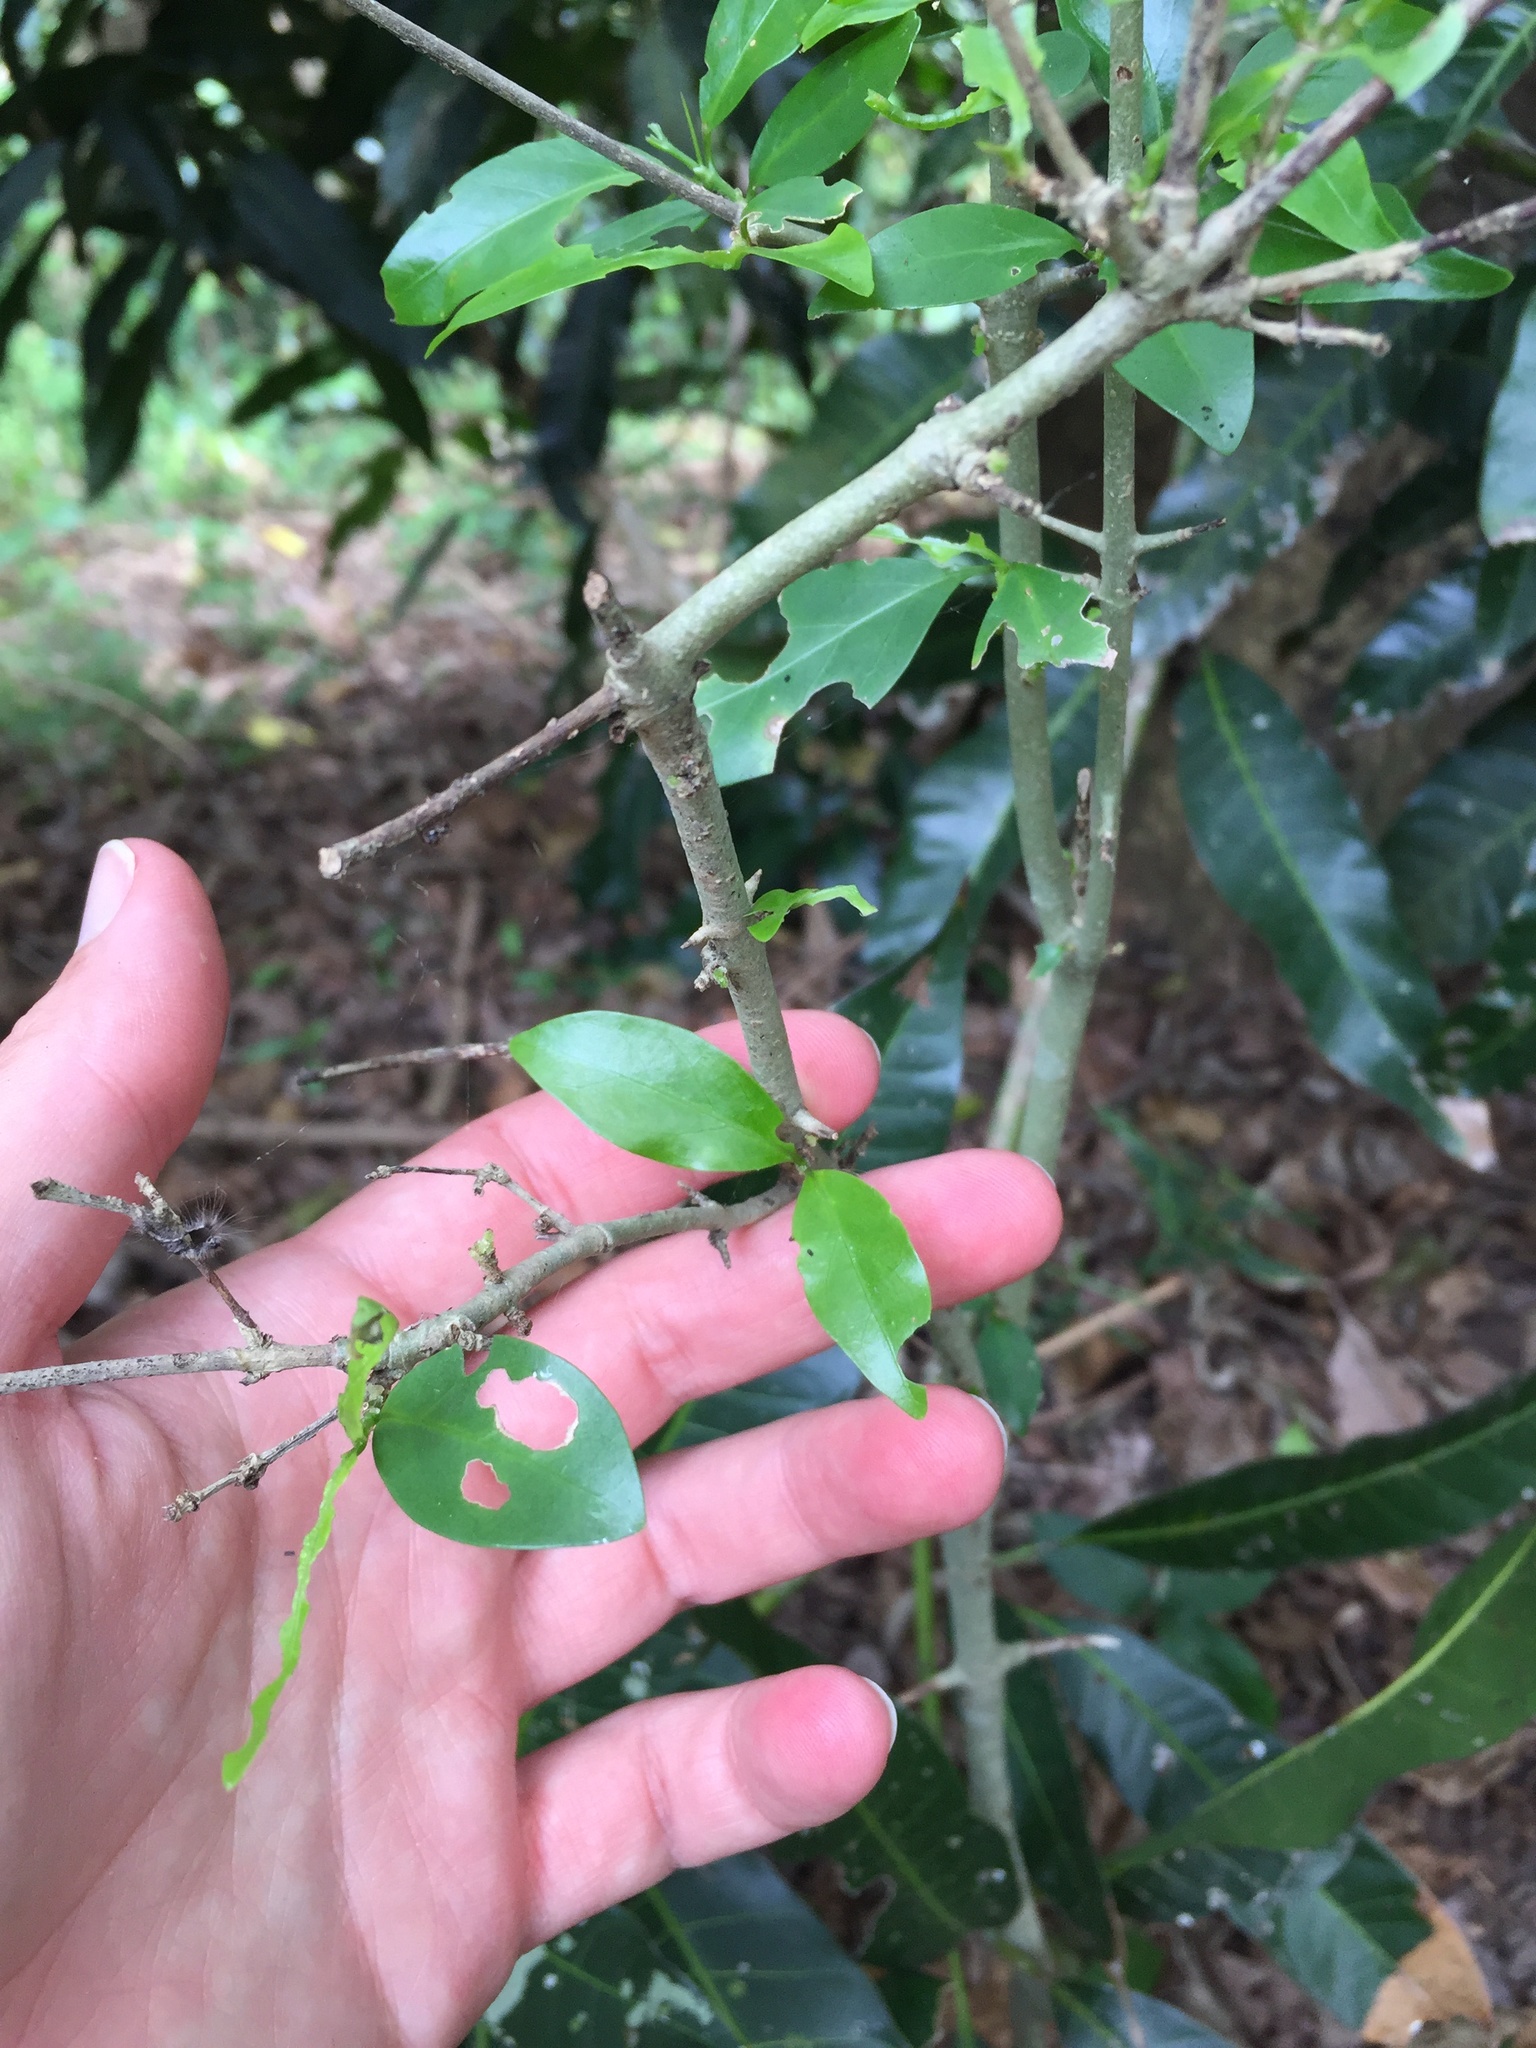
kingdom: Plantae
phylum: Tracheophyta
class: Magnoliopsida
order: Gentianales
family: Rubiaceae
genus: Canthium
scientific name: Canthium inerme
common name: Unarmed turkey-berry
